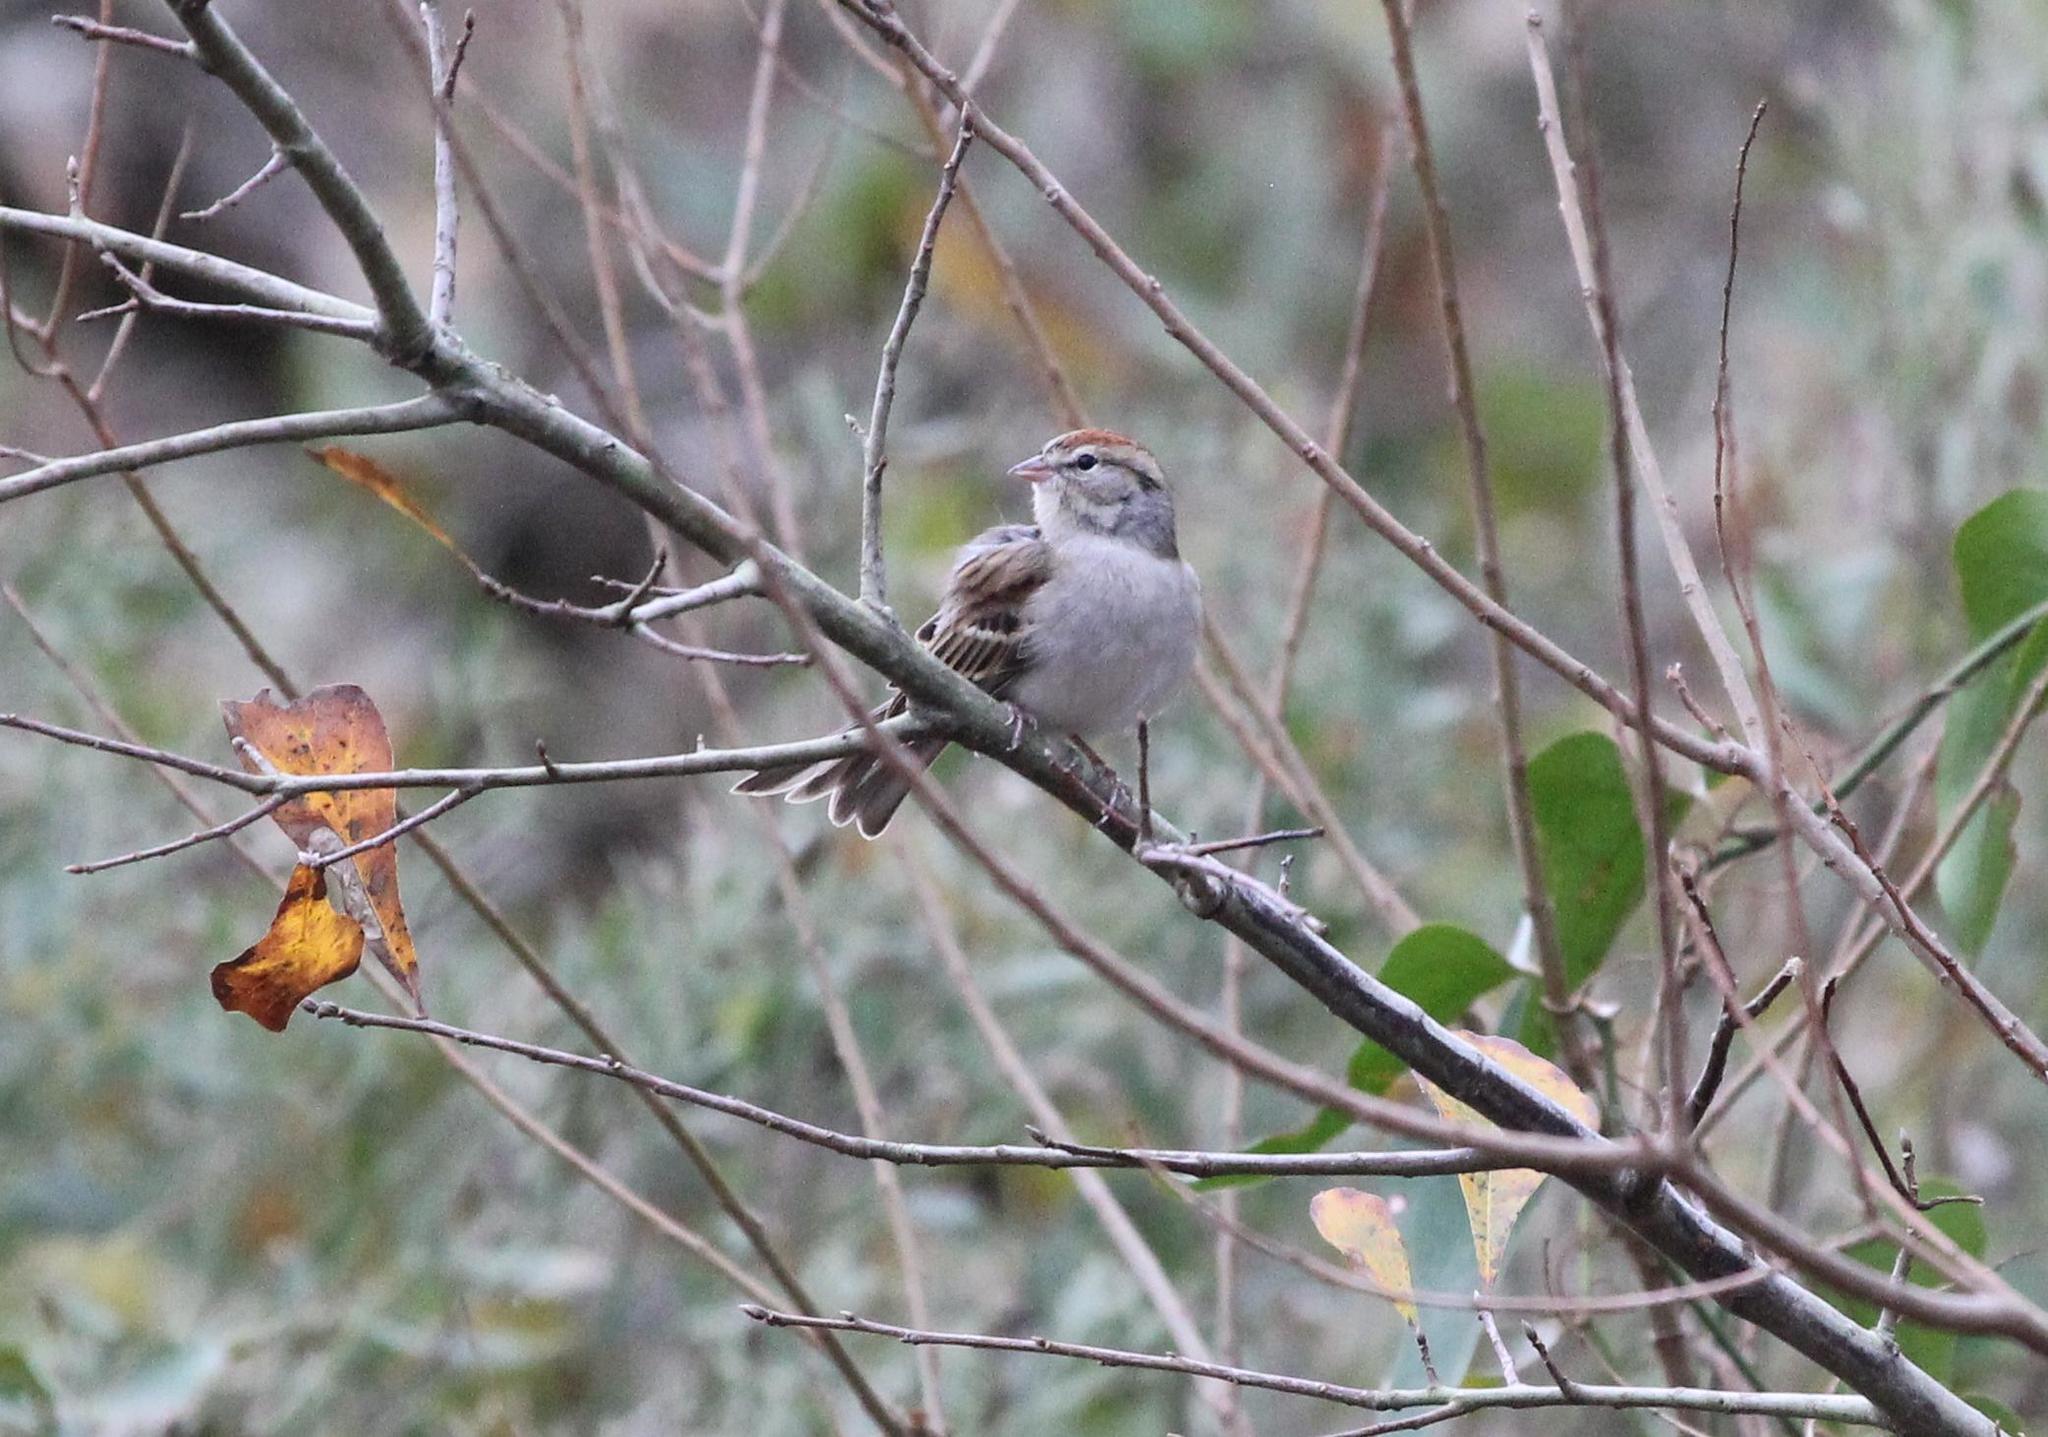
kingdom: Animalia
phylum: Chordata
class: Aves
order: Passeriformes
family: Passerellidae
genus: Spizella
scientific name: Spizella passerina
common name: Chipping sparrow
